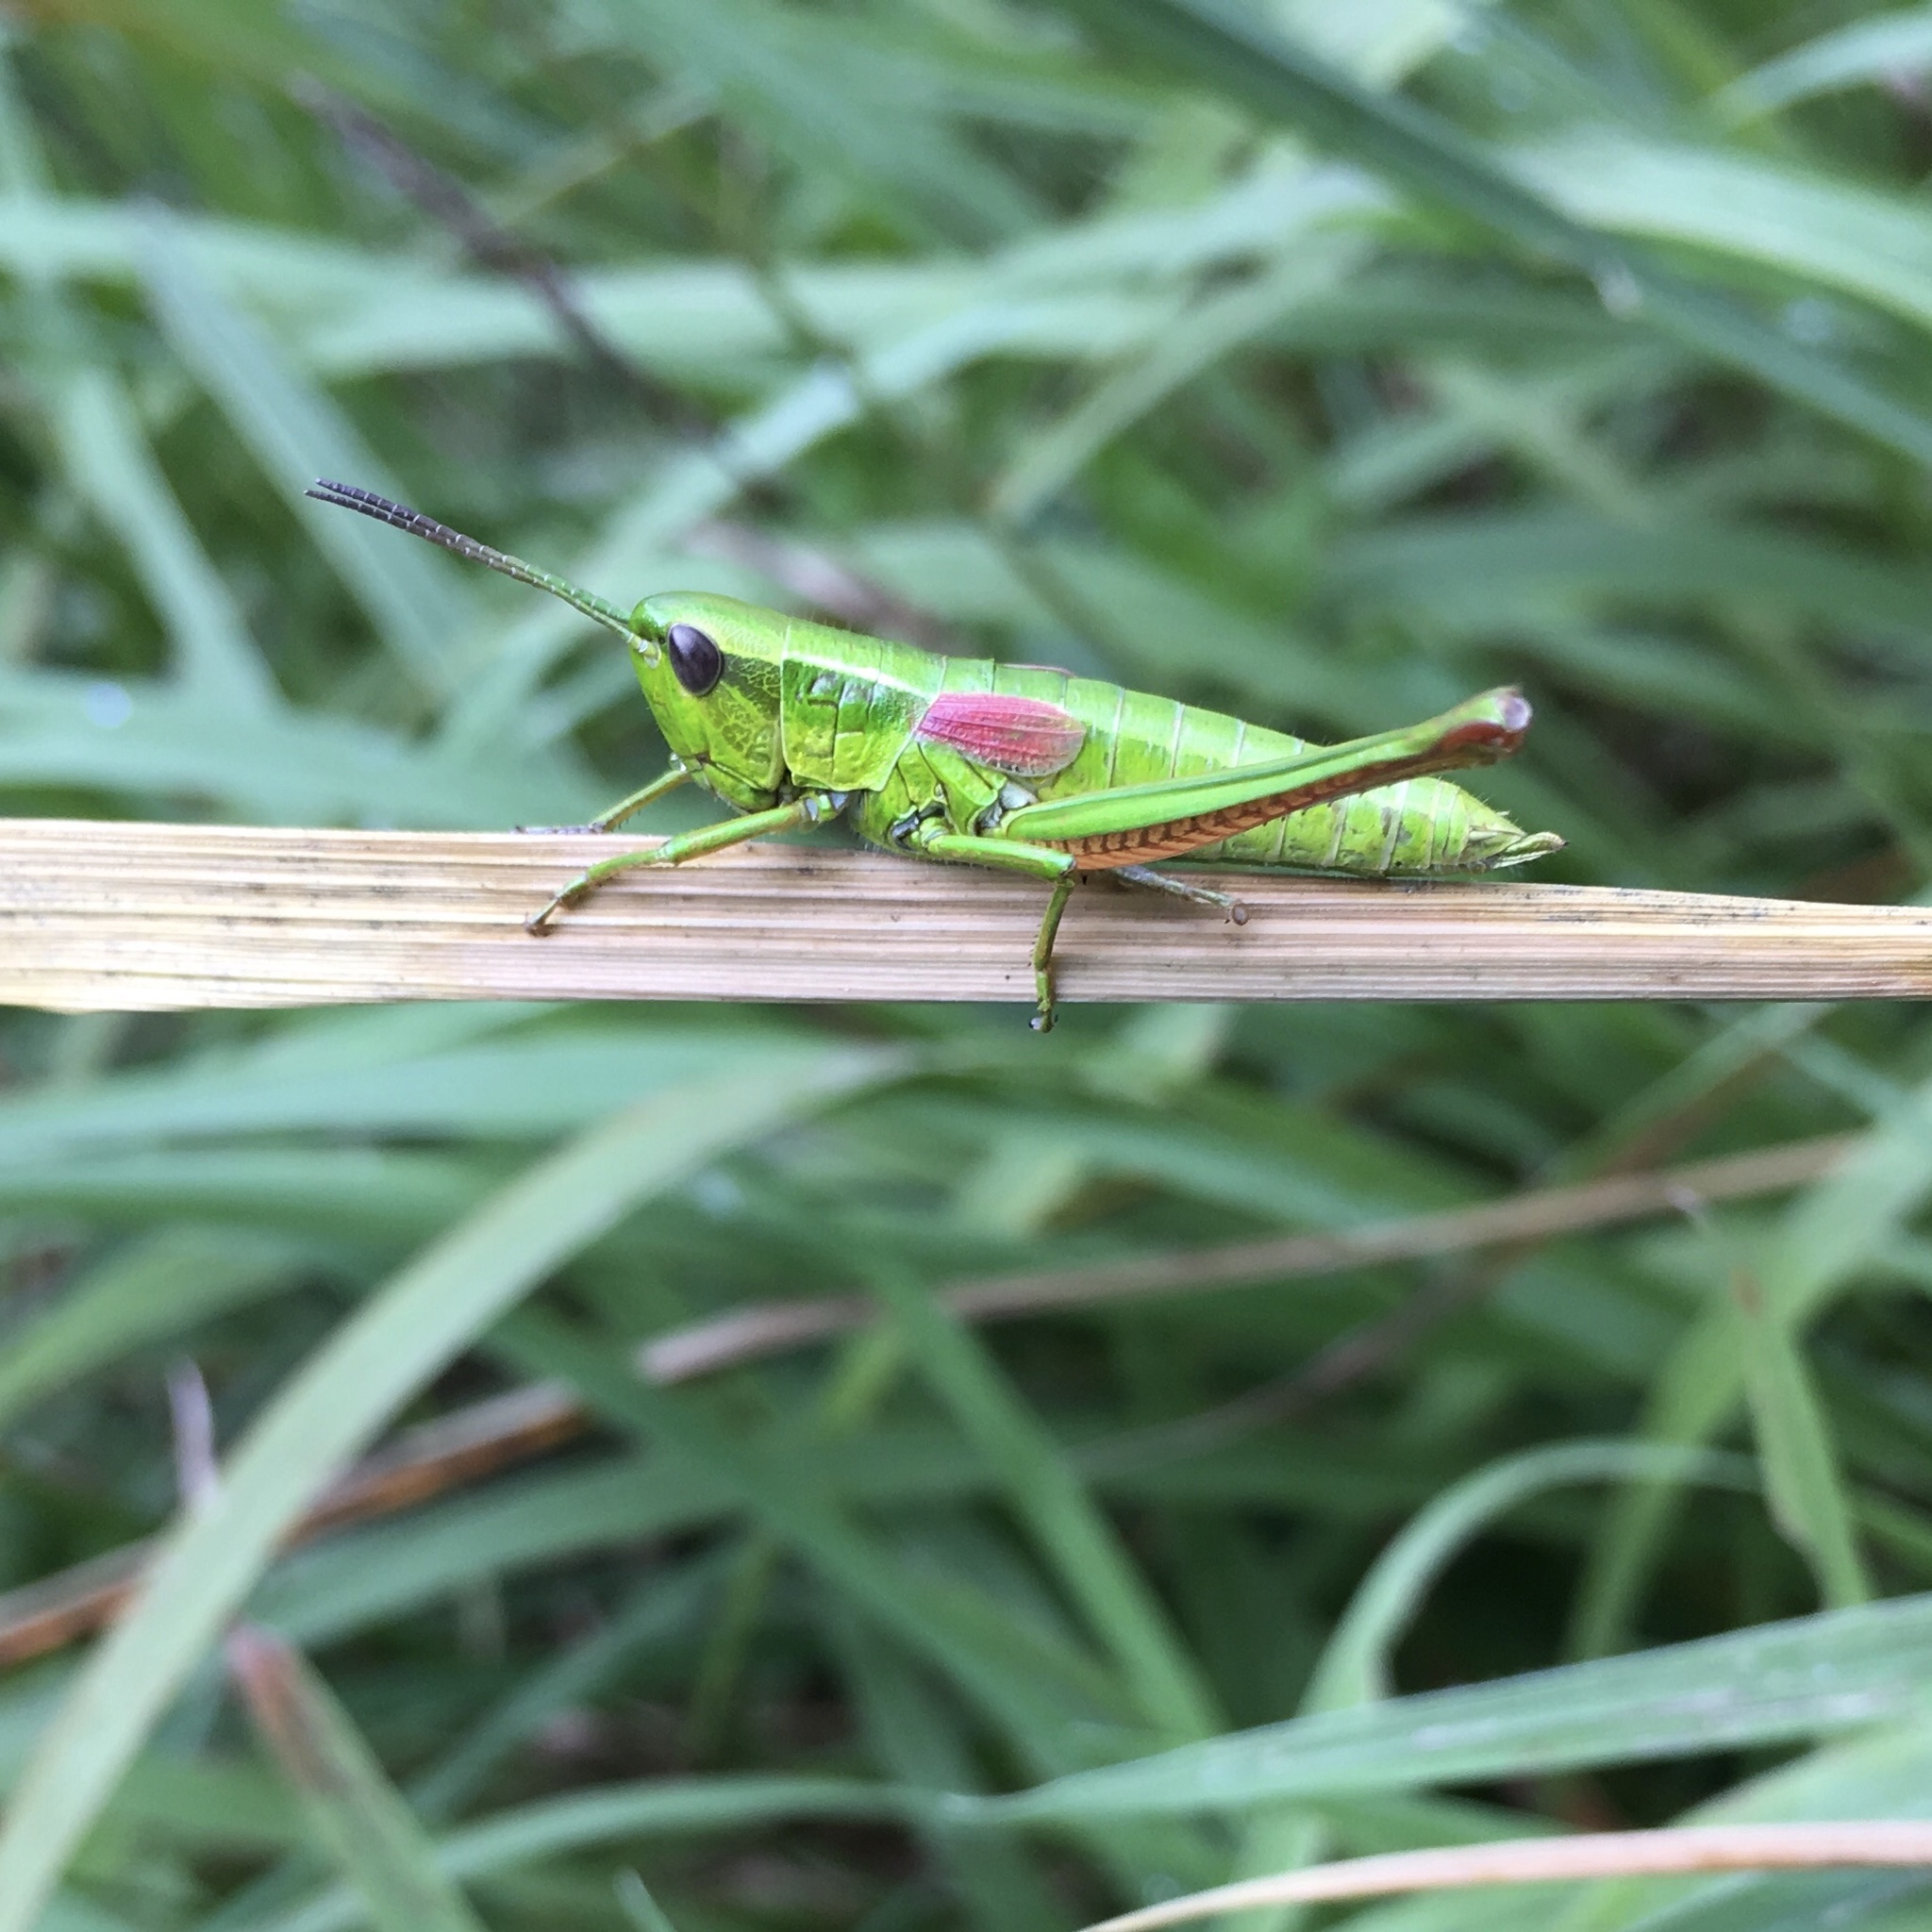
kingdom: Animalia
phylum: Arthropoda
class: Insecta
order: Orthoptera
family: Acrididae
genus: Euthystira
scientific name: Euthystira brachyptera
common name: Small gold grasshopper
